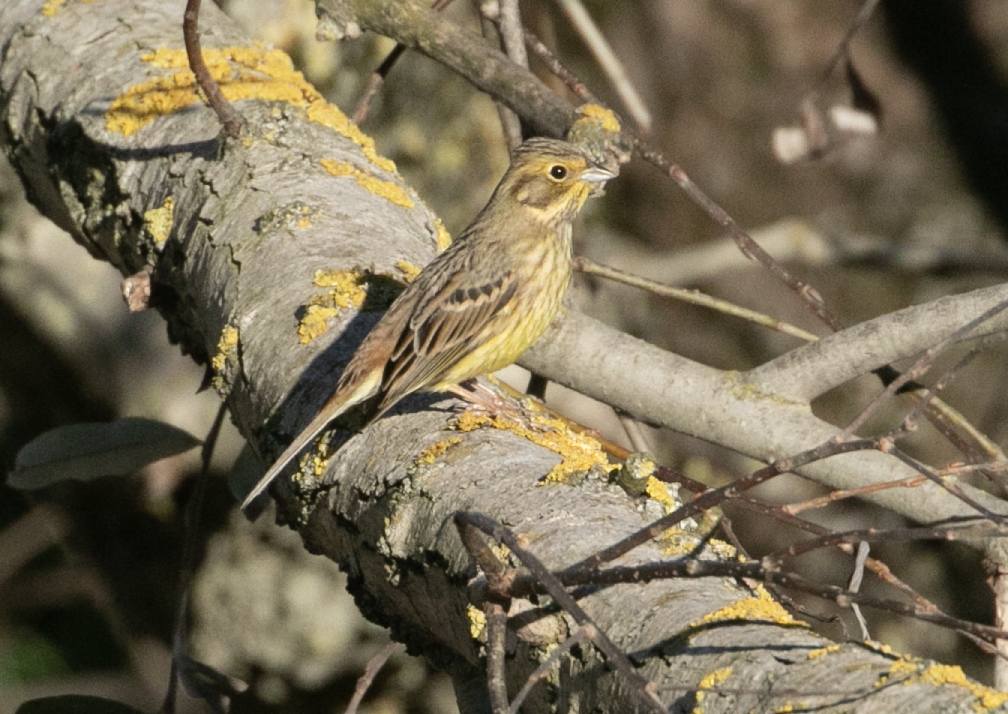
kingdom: Animalia
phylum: Chordata
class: Aves
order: Passeriformes
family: Emberizidae
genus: Emberiza
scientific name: Emberiza citrinella
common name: Yellowhammer
